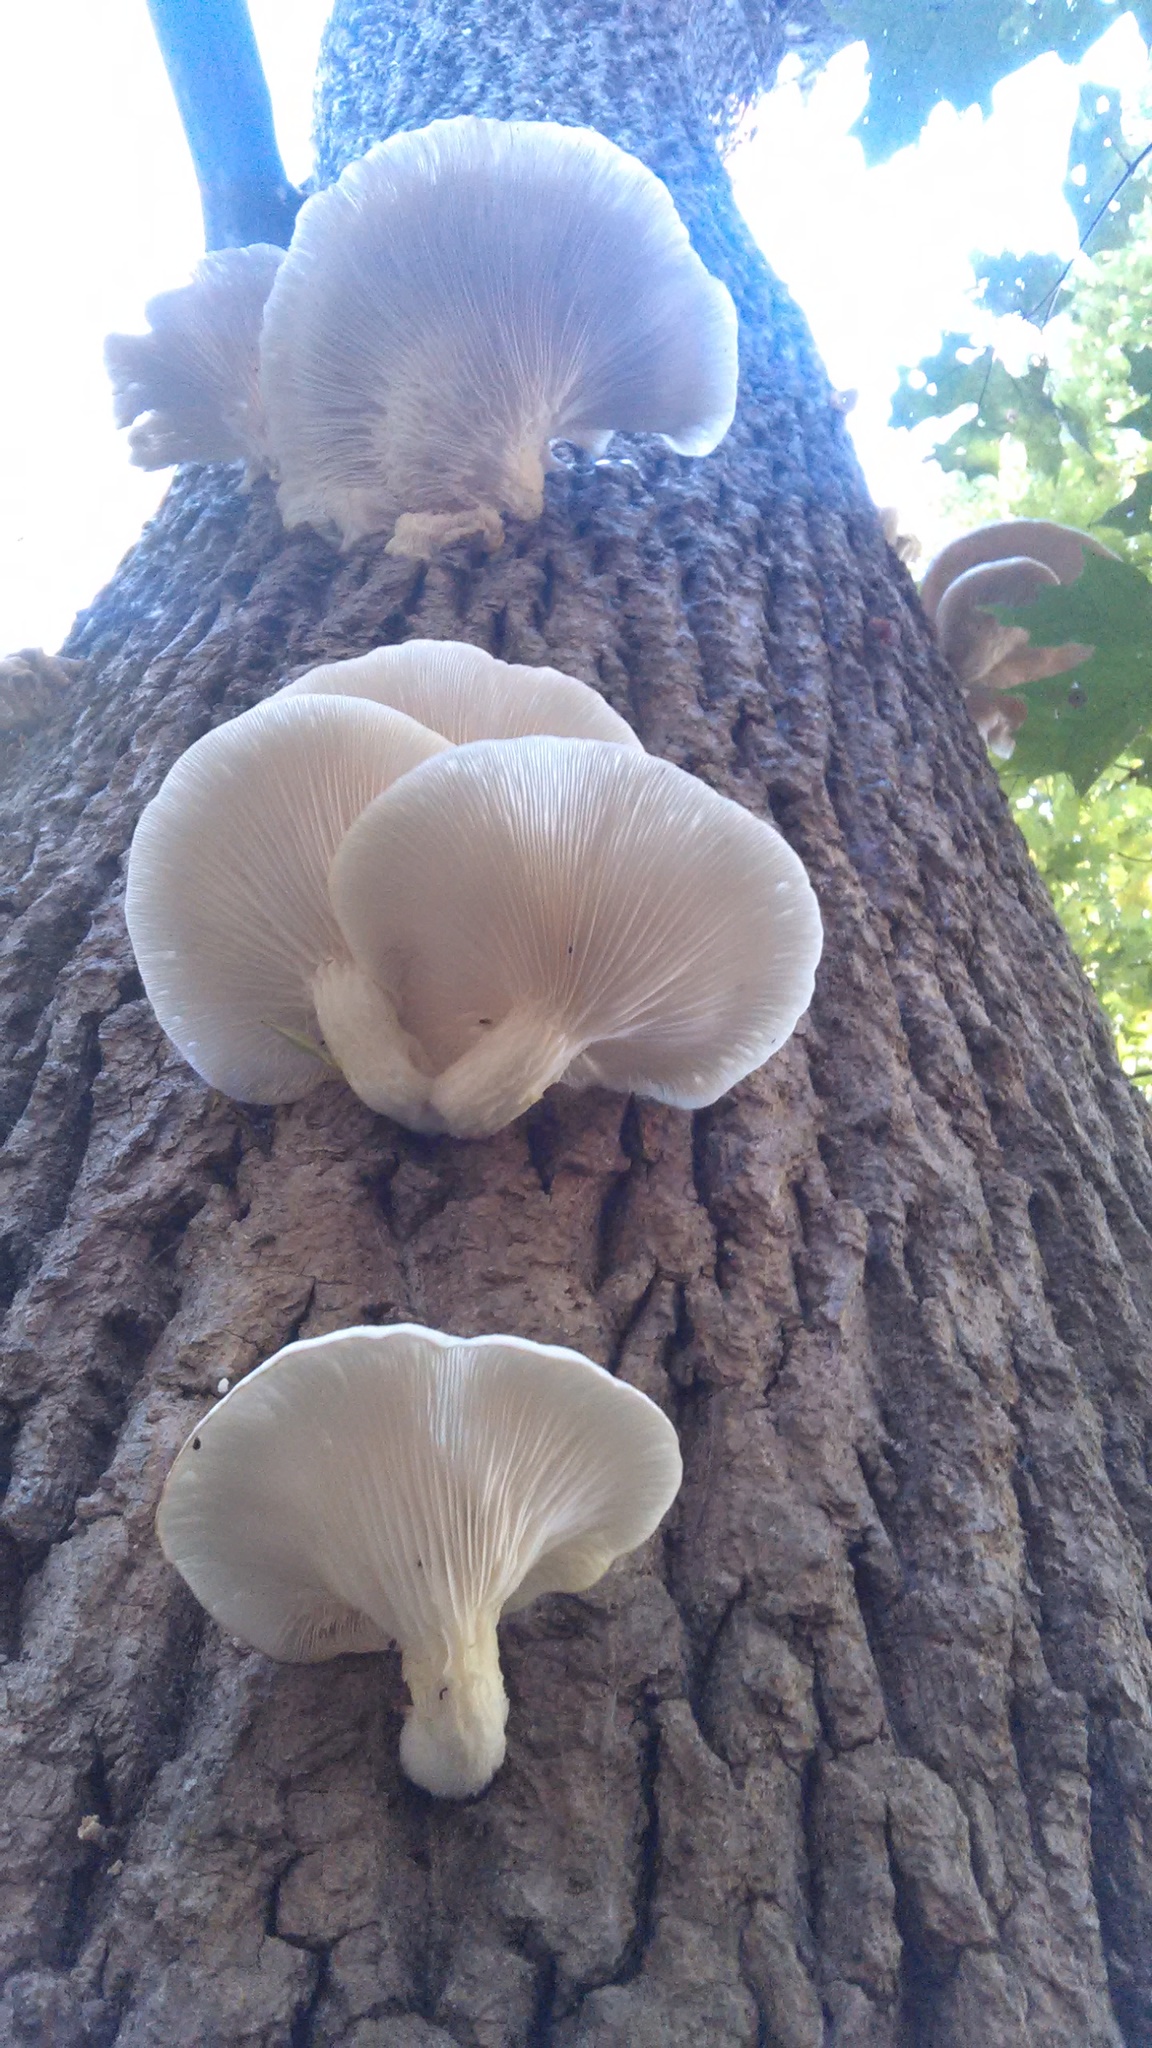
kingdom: Fungi
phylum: Basidiomycota
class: Agaricomycetes
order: Agaricales
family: Pleurotaceae
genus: Pleurotus
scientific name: Pleurotus populinus
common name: Aspen oyster mushroom
